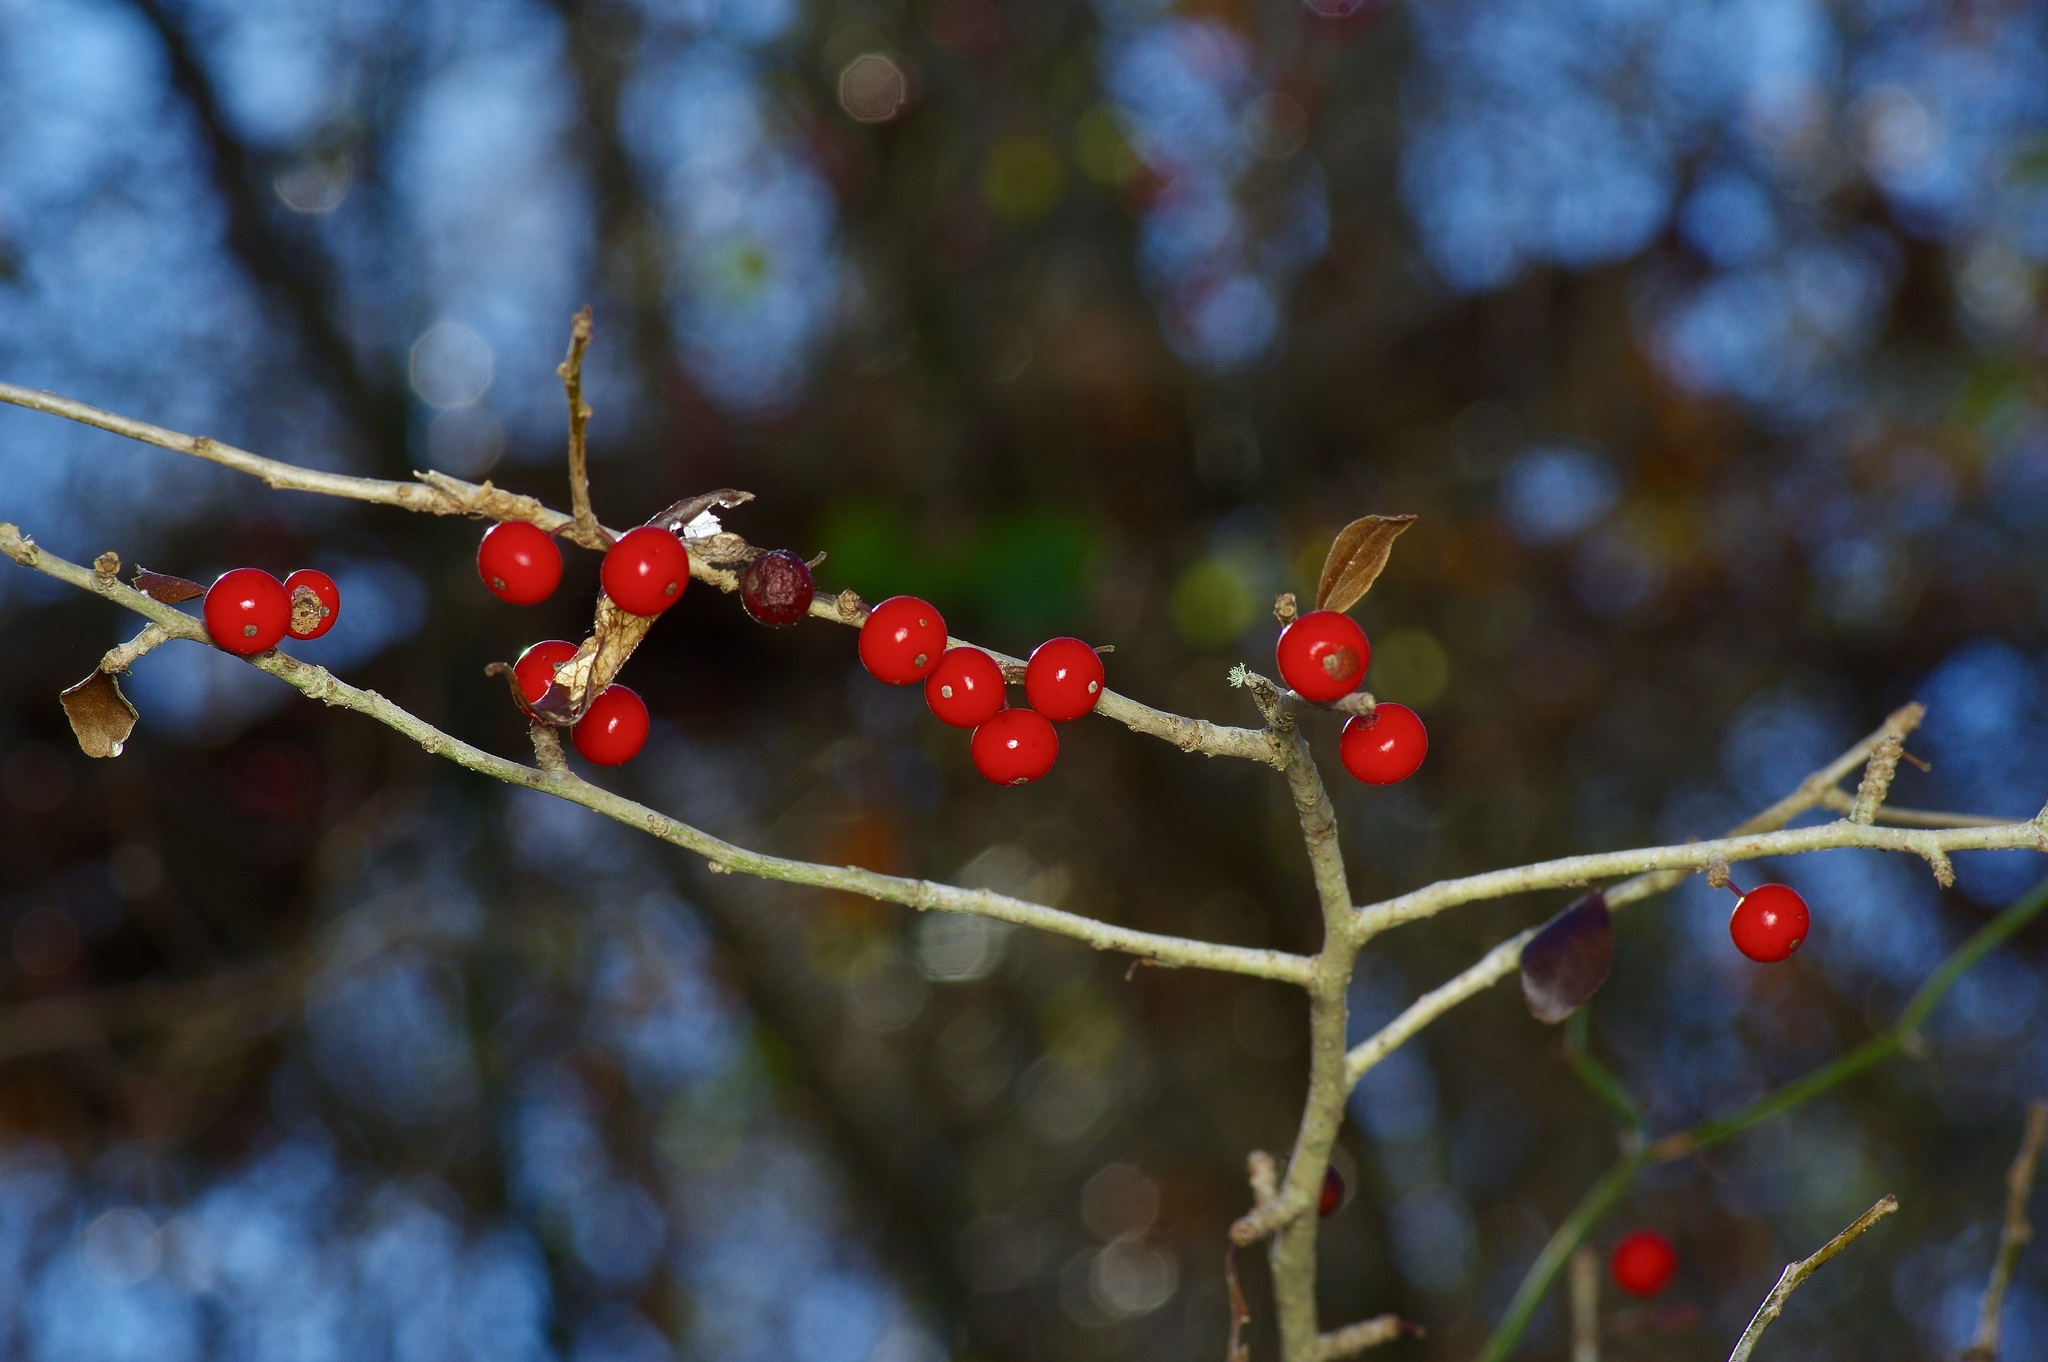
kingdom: Plantae
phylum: Tracheophyta
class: Magnoliopsida
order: Aquifoliales
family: Aquifoliaceae
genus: Ilex
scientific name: Ilex decidua
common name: Possum-haw
